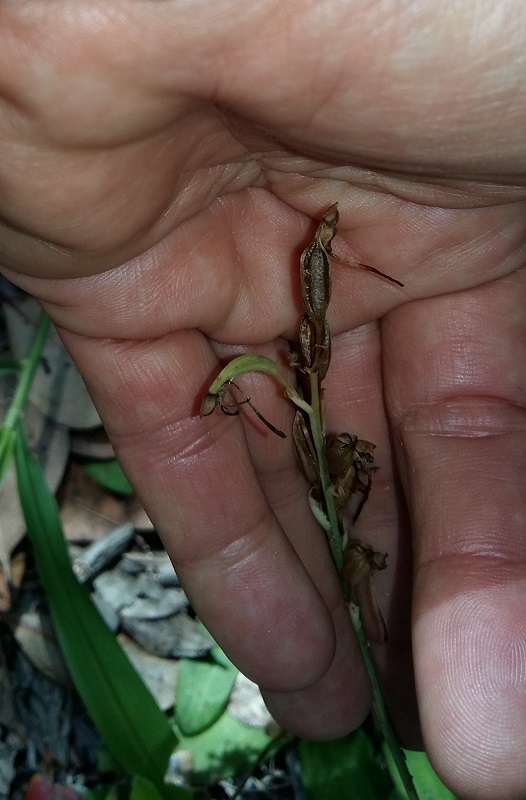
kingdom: Plantae
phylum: Tracheophyta
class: Liliopsida
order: Asparagales
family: Orchidaceae
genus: Habenaria
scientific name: Habenaria arenaria
